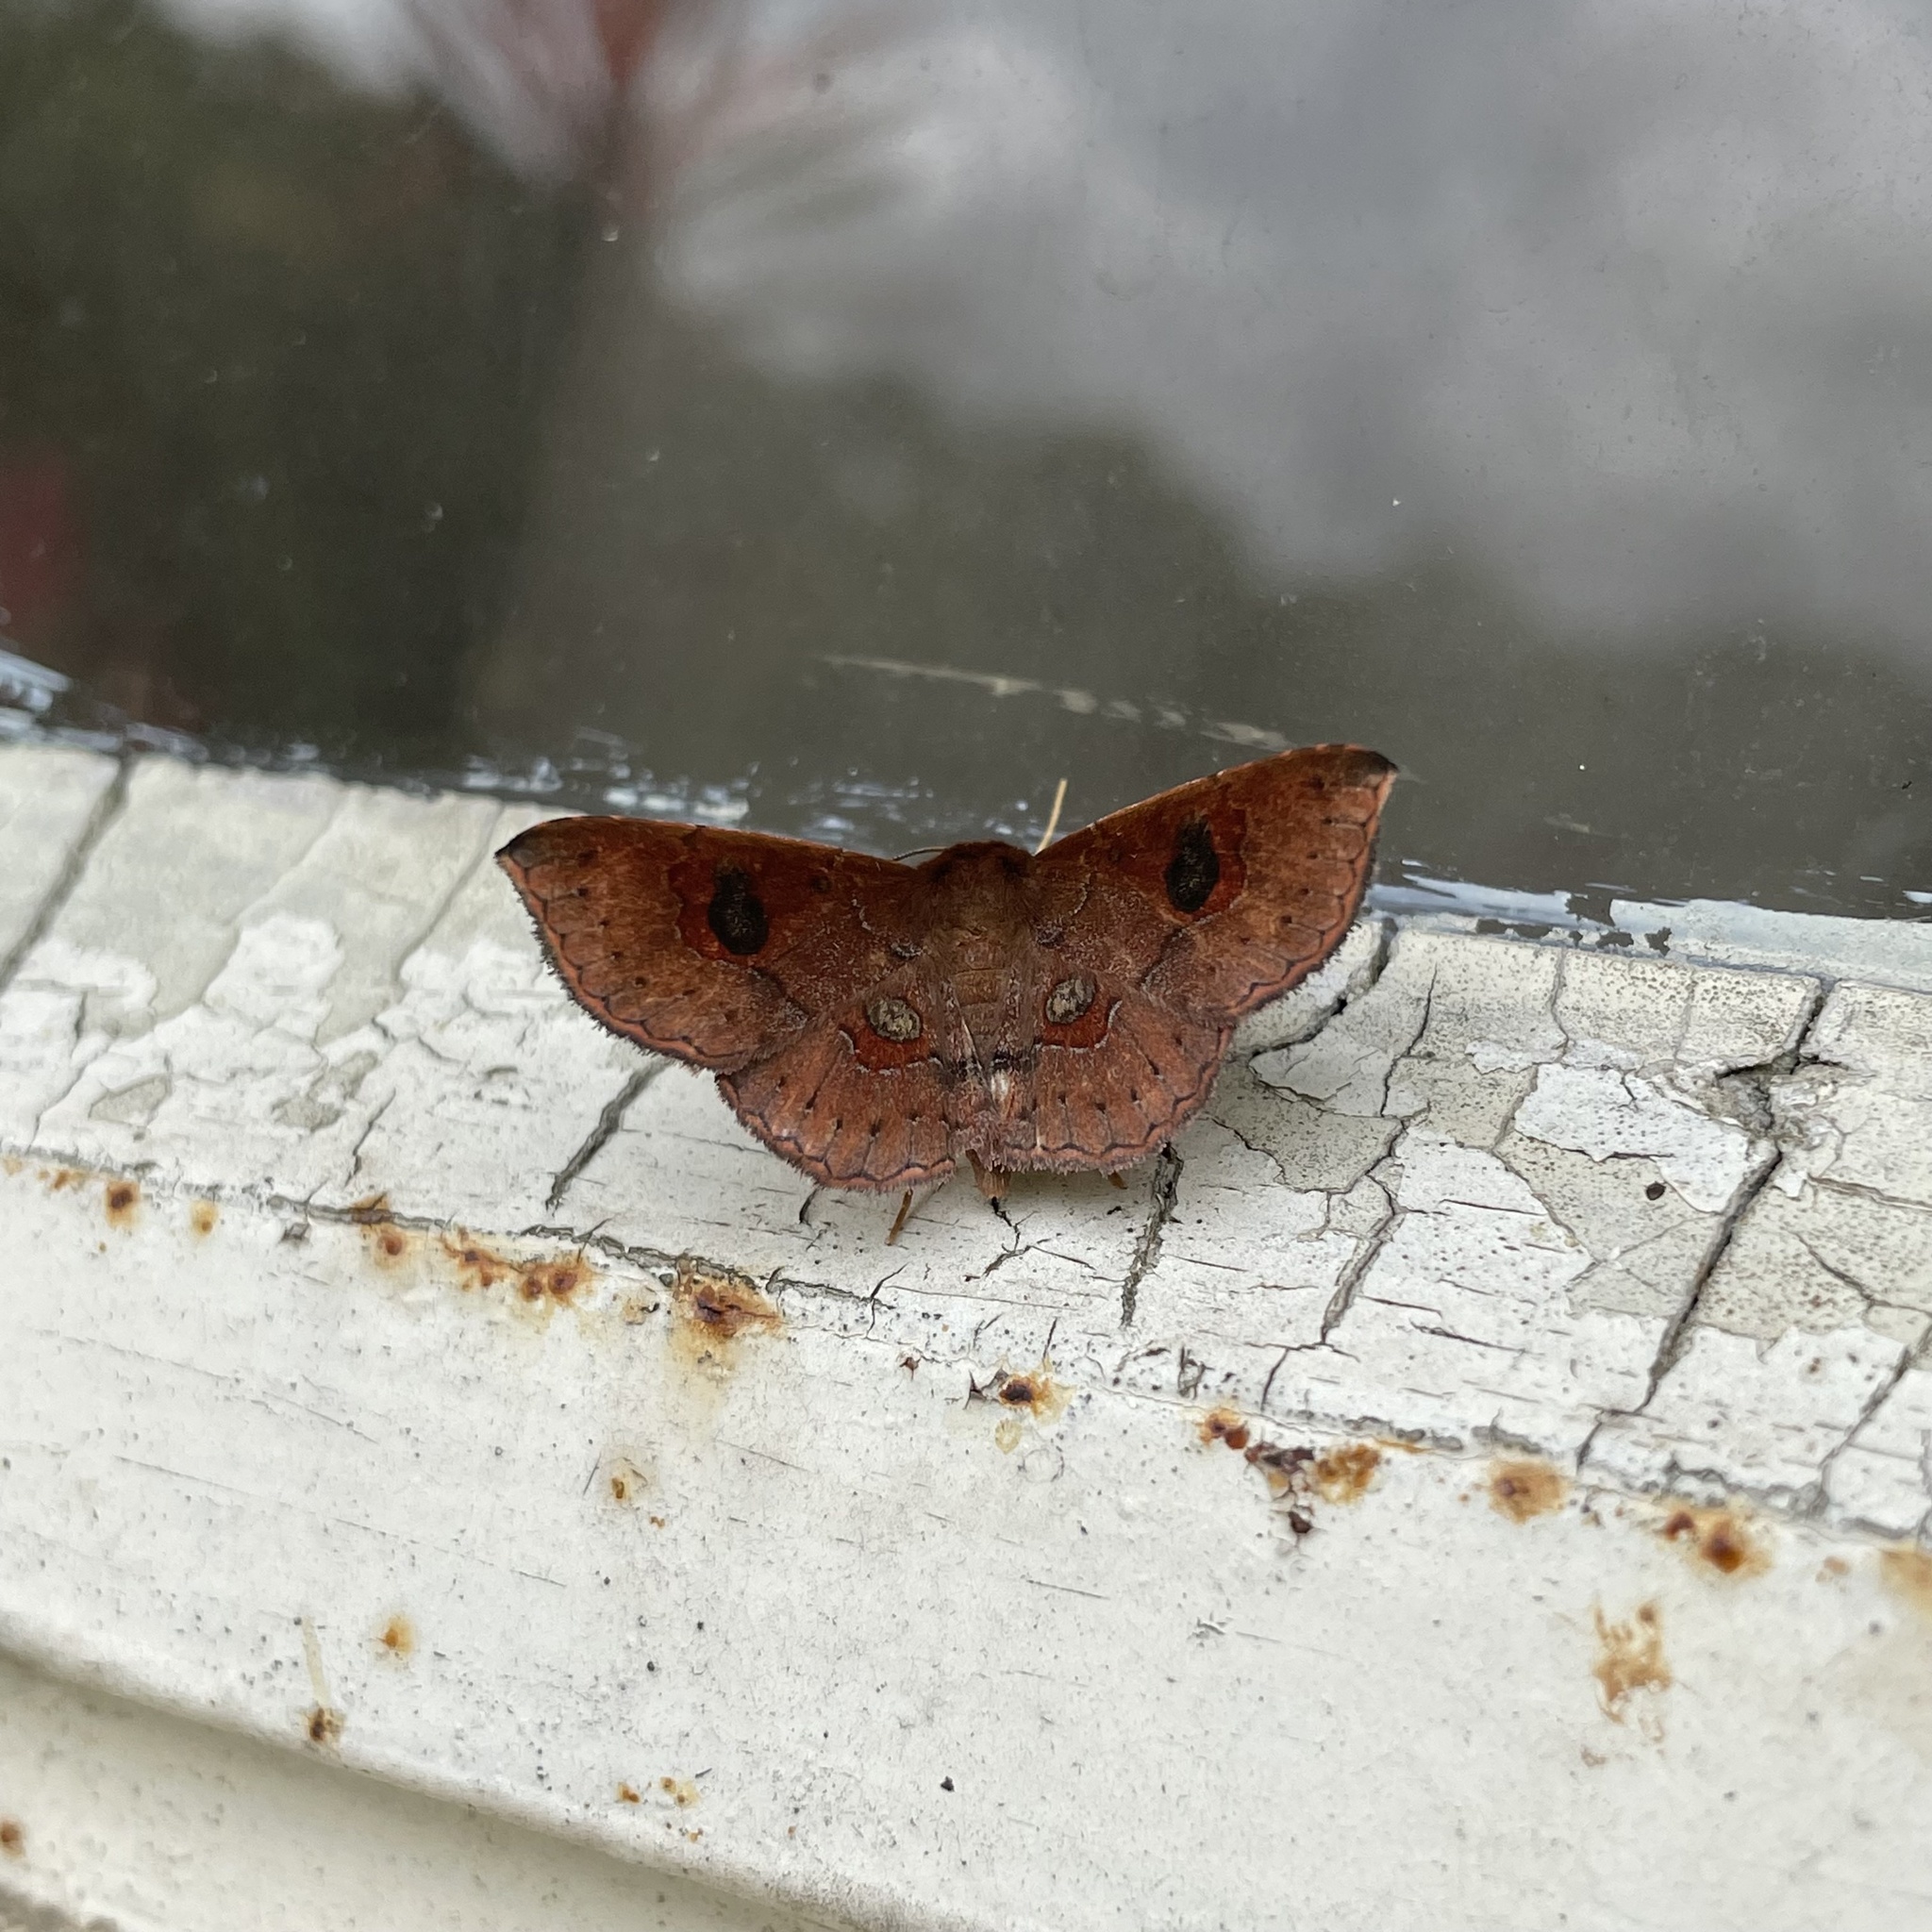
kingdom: Animalia
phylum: Arthropoda
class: Insecta
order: Lepidoptera
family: Erebidae
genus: Oxidercia
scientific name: Oxidercia toxea
